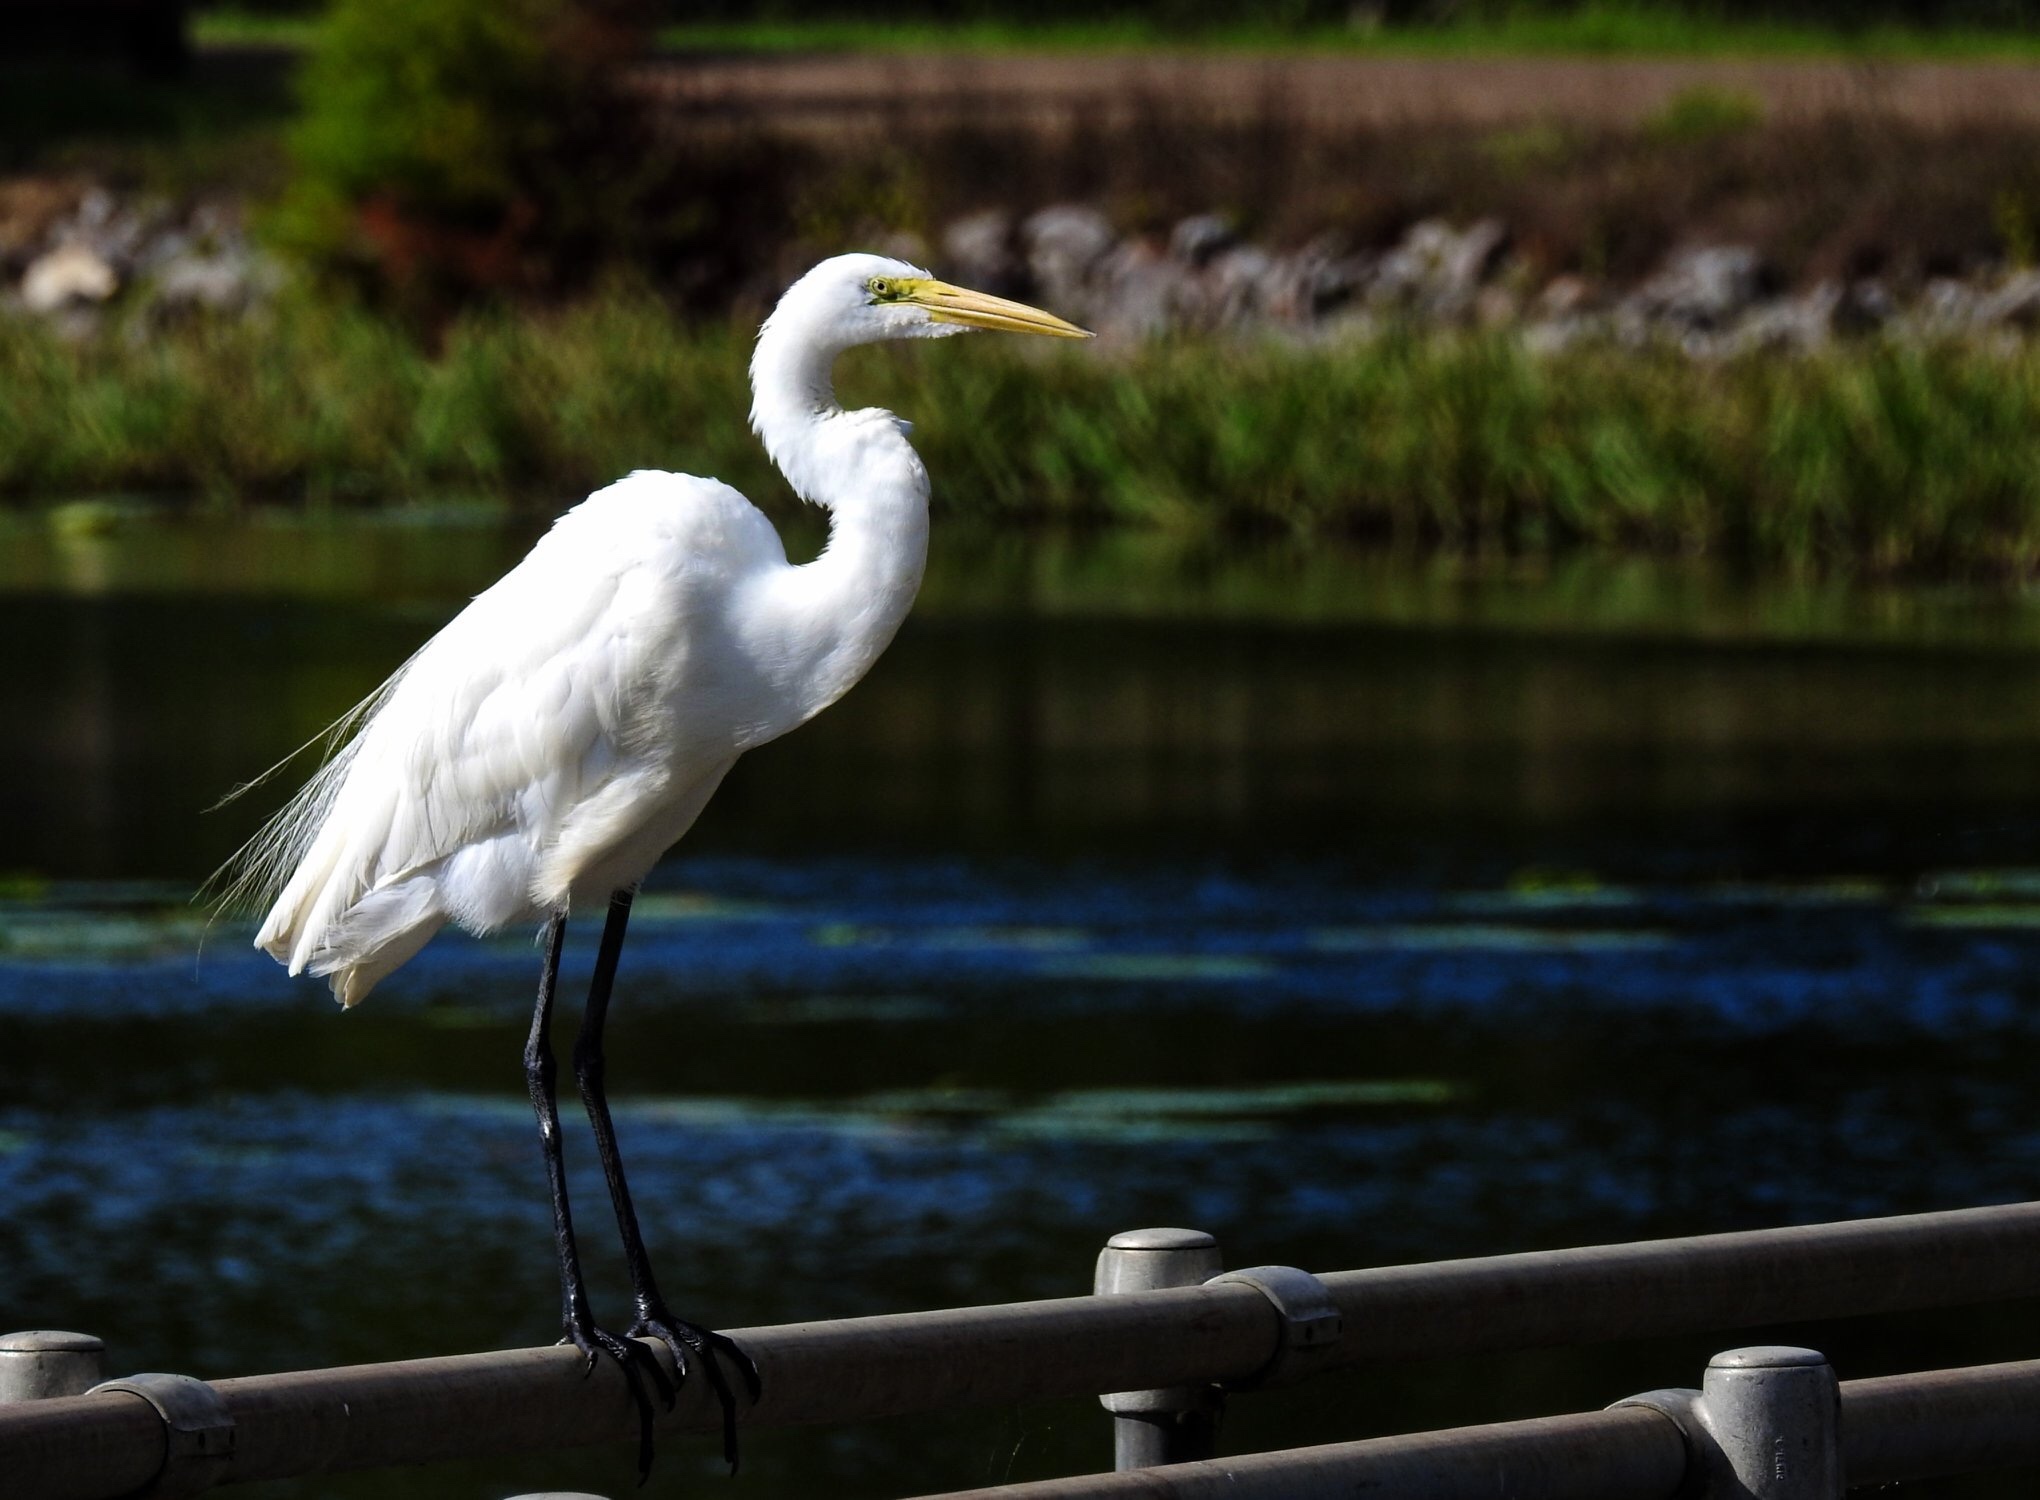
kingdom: Animalia
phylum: Chordata
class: Aves
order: Pelecaniformes
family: Ardeidae
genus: Ardea
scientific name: Ardea alba
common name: Great egret
